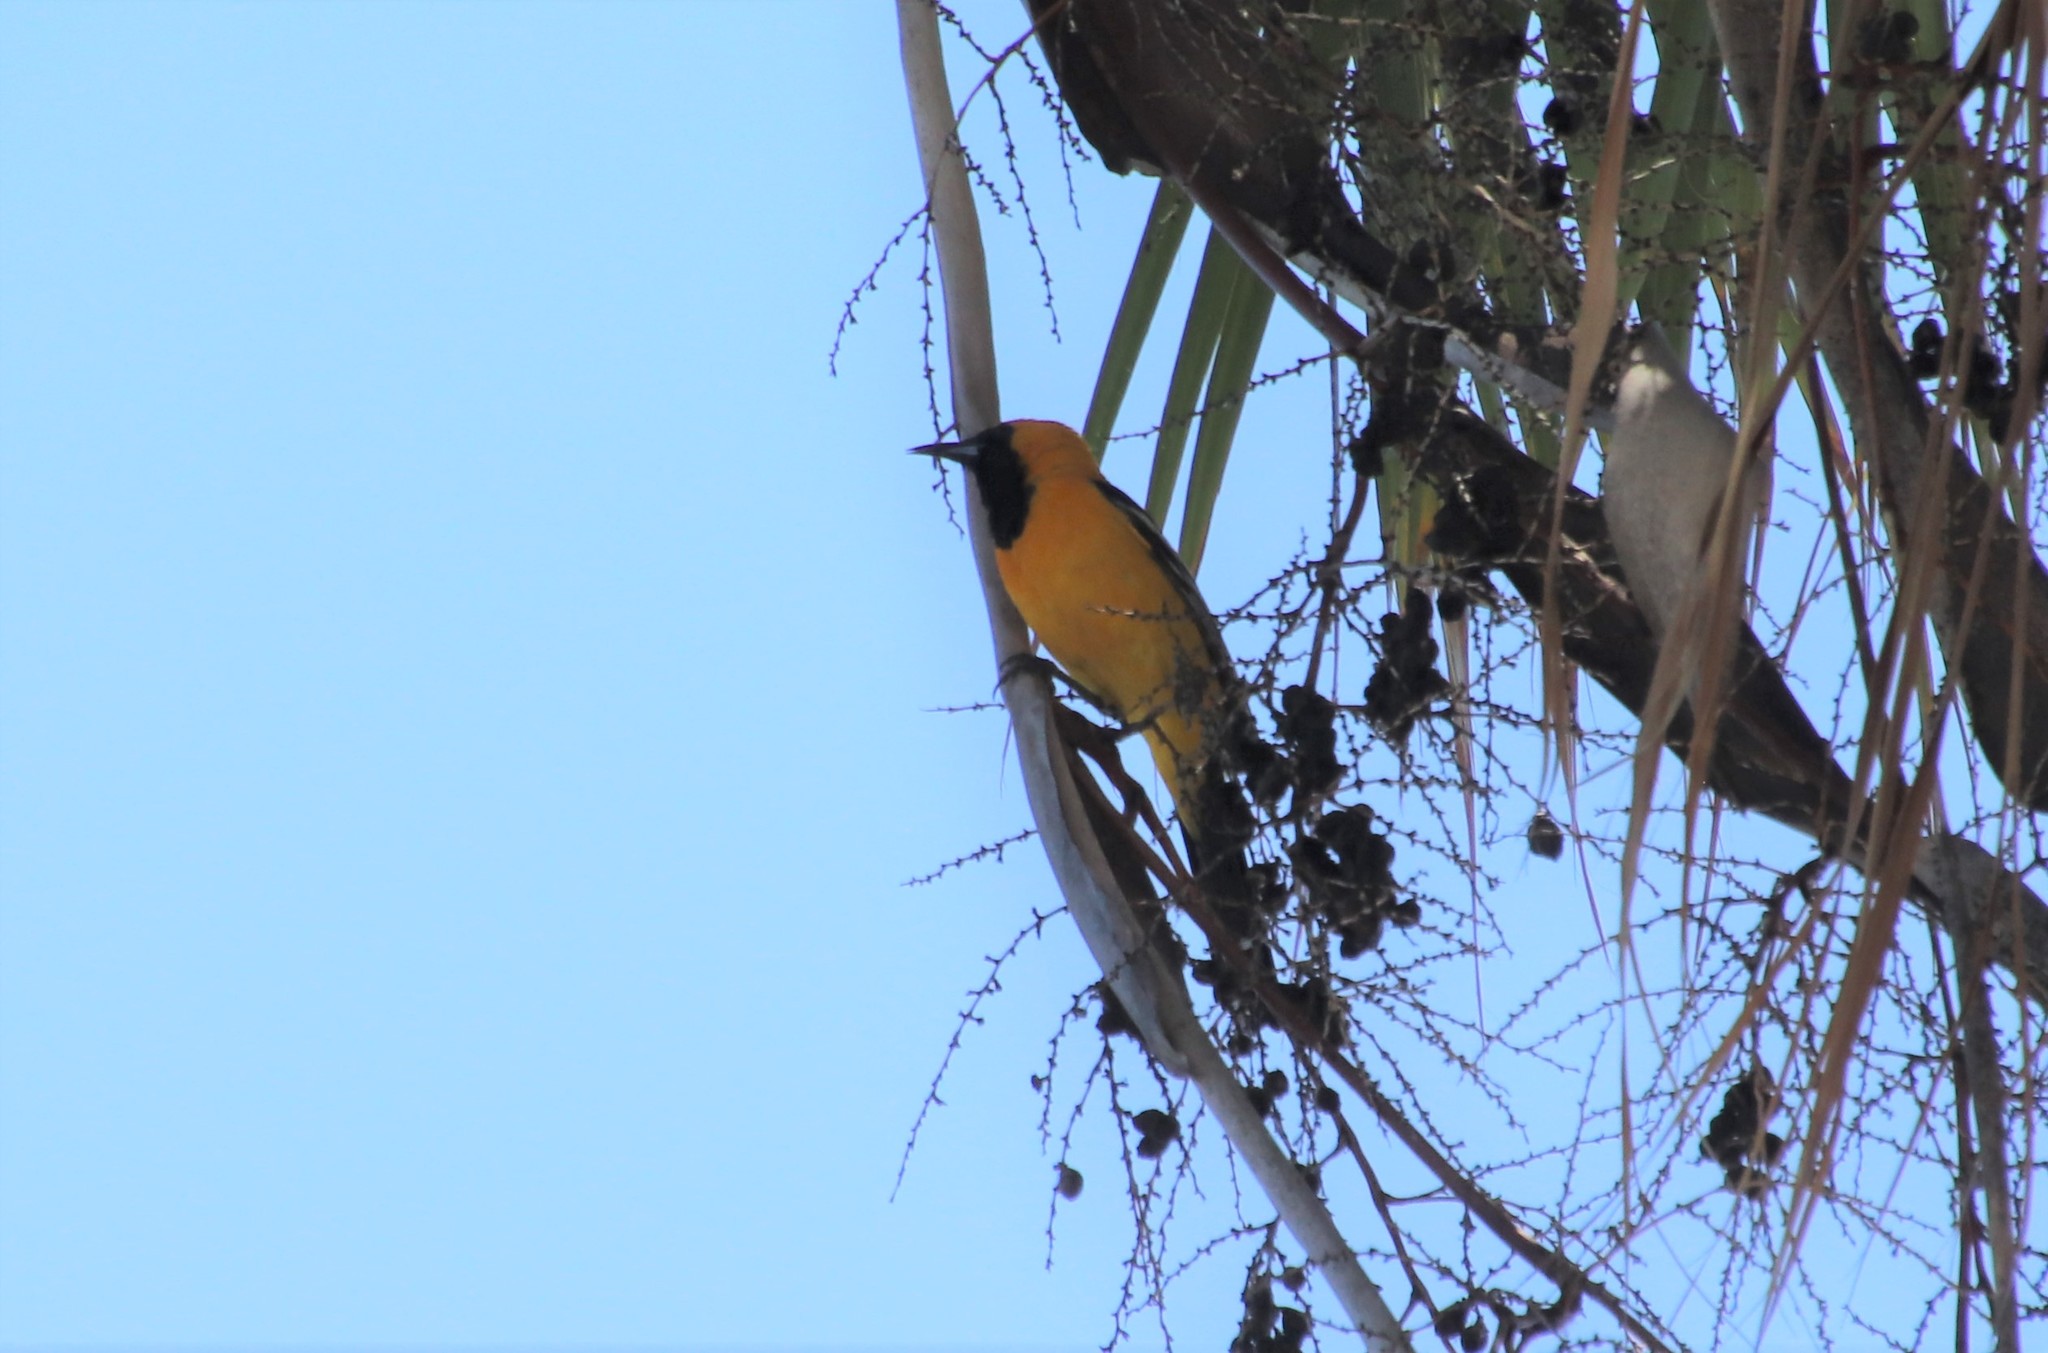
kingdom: Animalia
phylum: Chordata
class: Aves
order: Passeriformes
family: Icteridae
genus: Icterus
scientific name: Icterus cucullatus
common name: Hooded oriole
